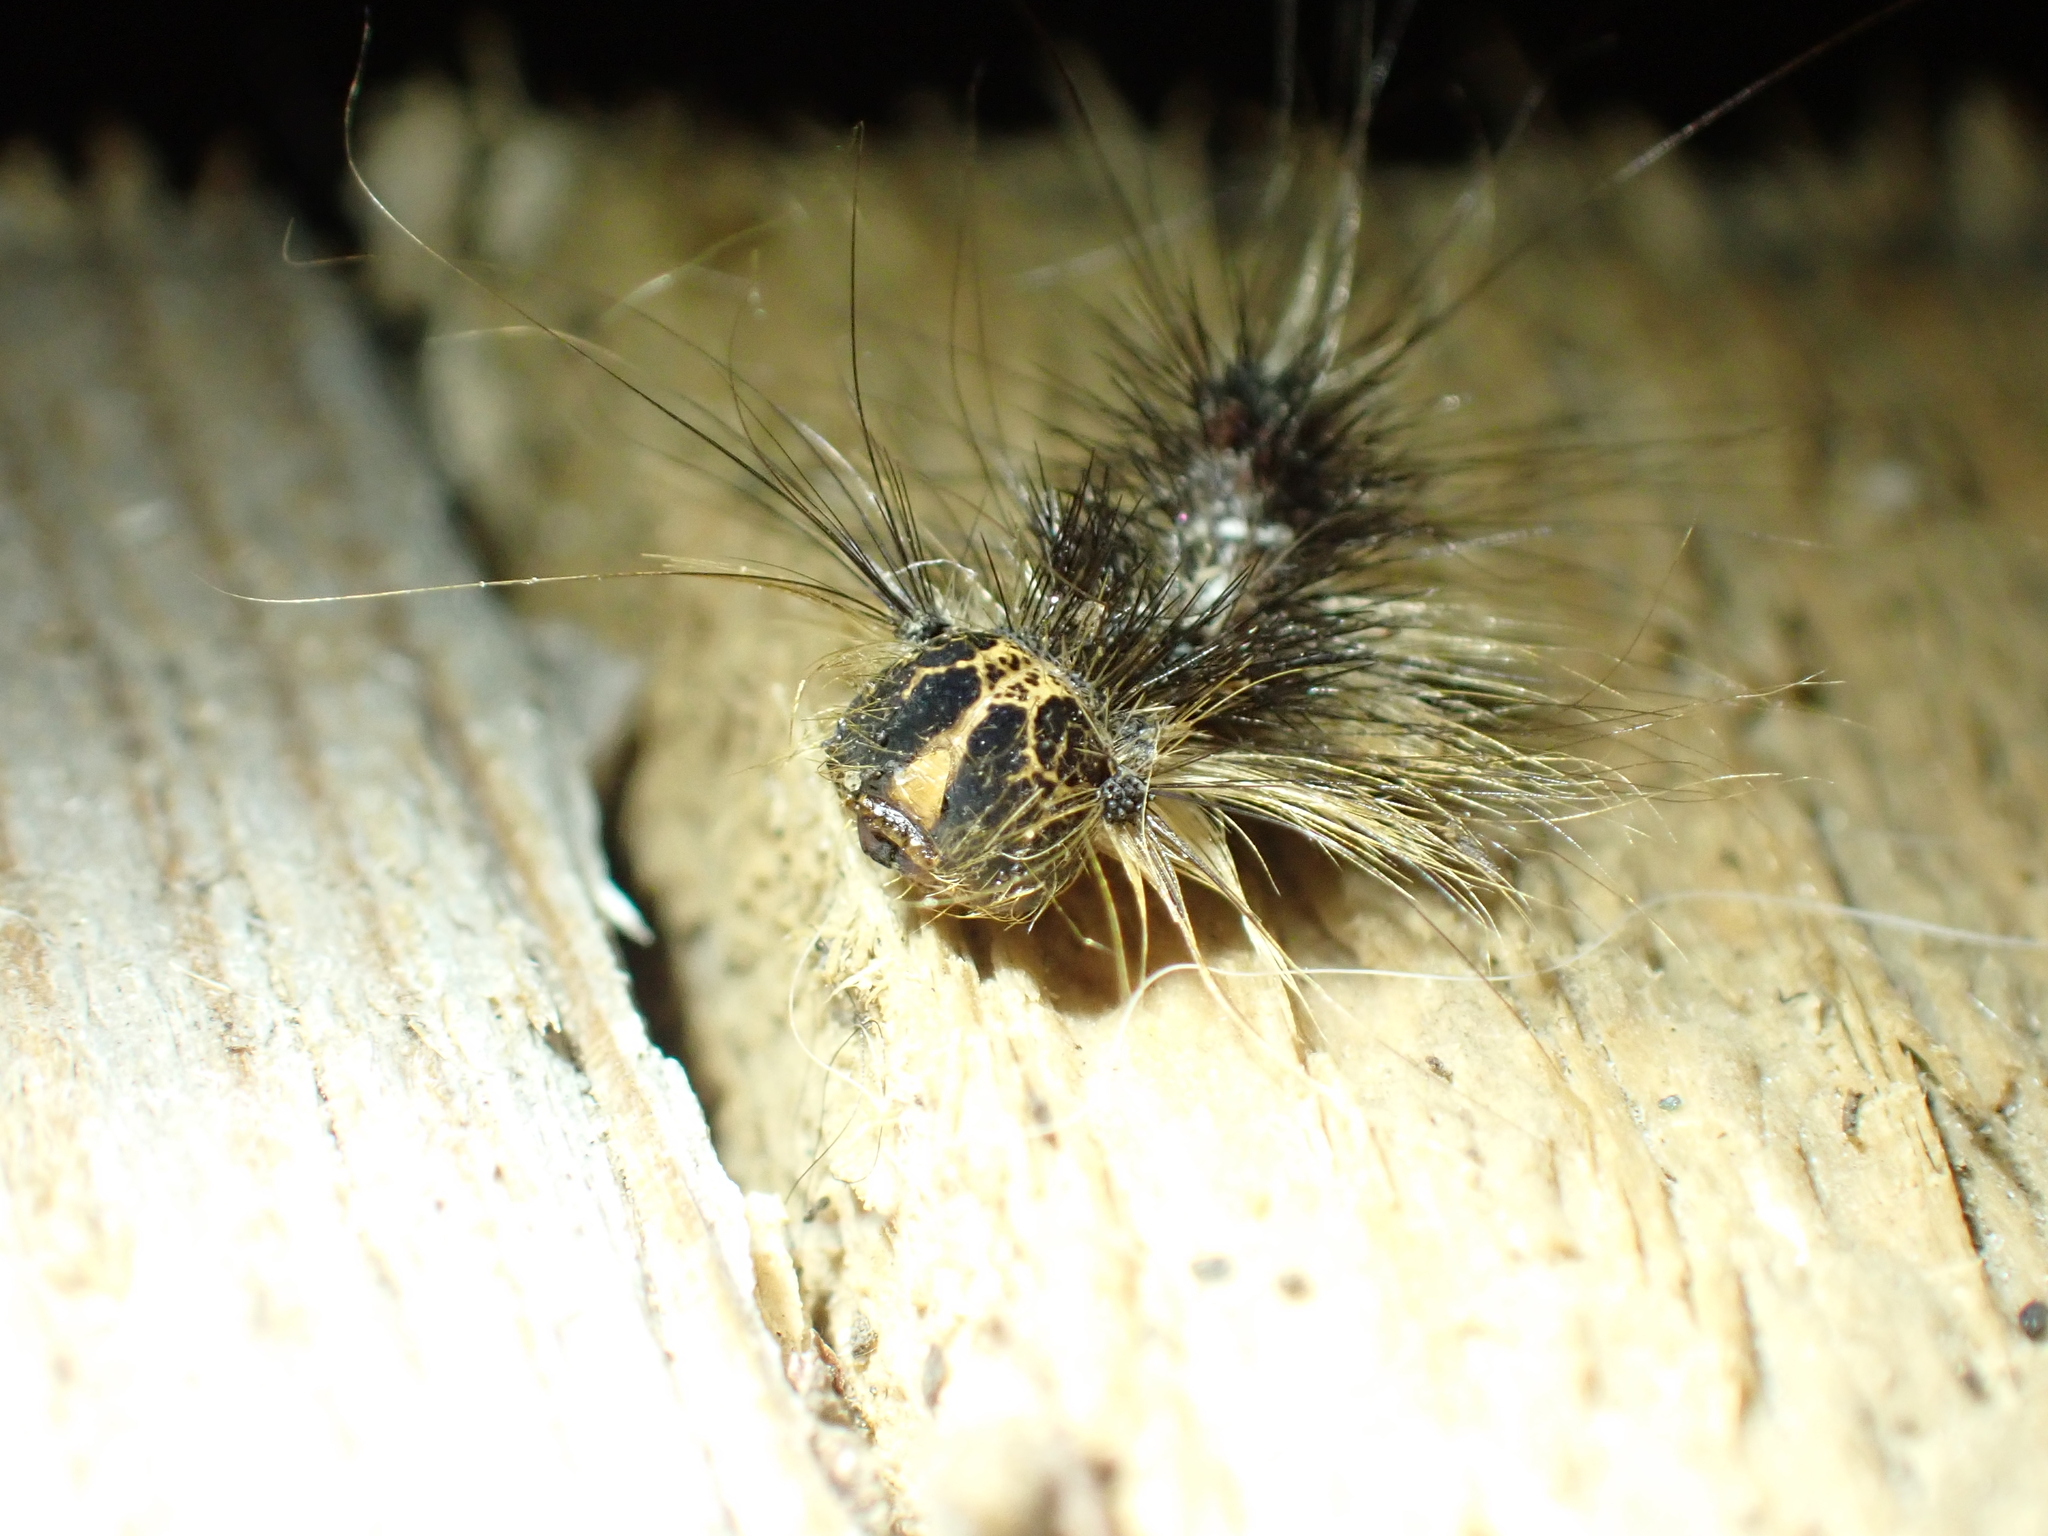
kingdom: Animalia
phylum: Arthropoda
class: Insecta
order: Lepidoptera
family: Erebidae
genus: Lymantria
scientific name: Lymantria dispar
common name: Gypsy moth
